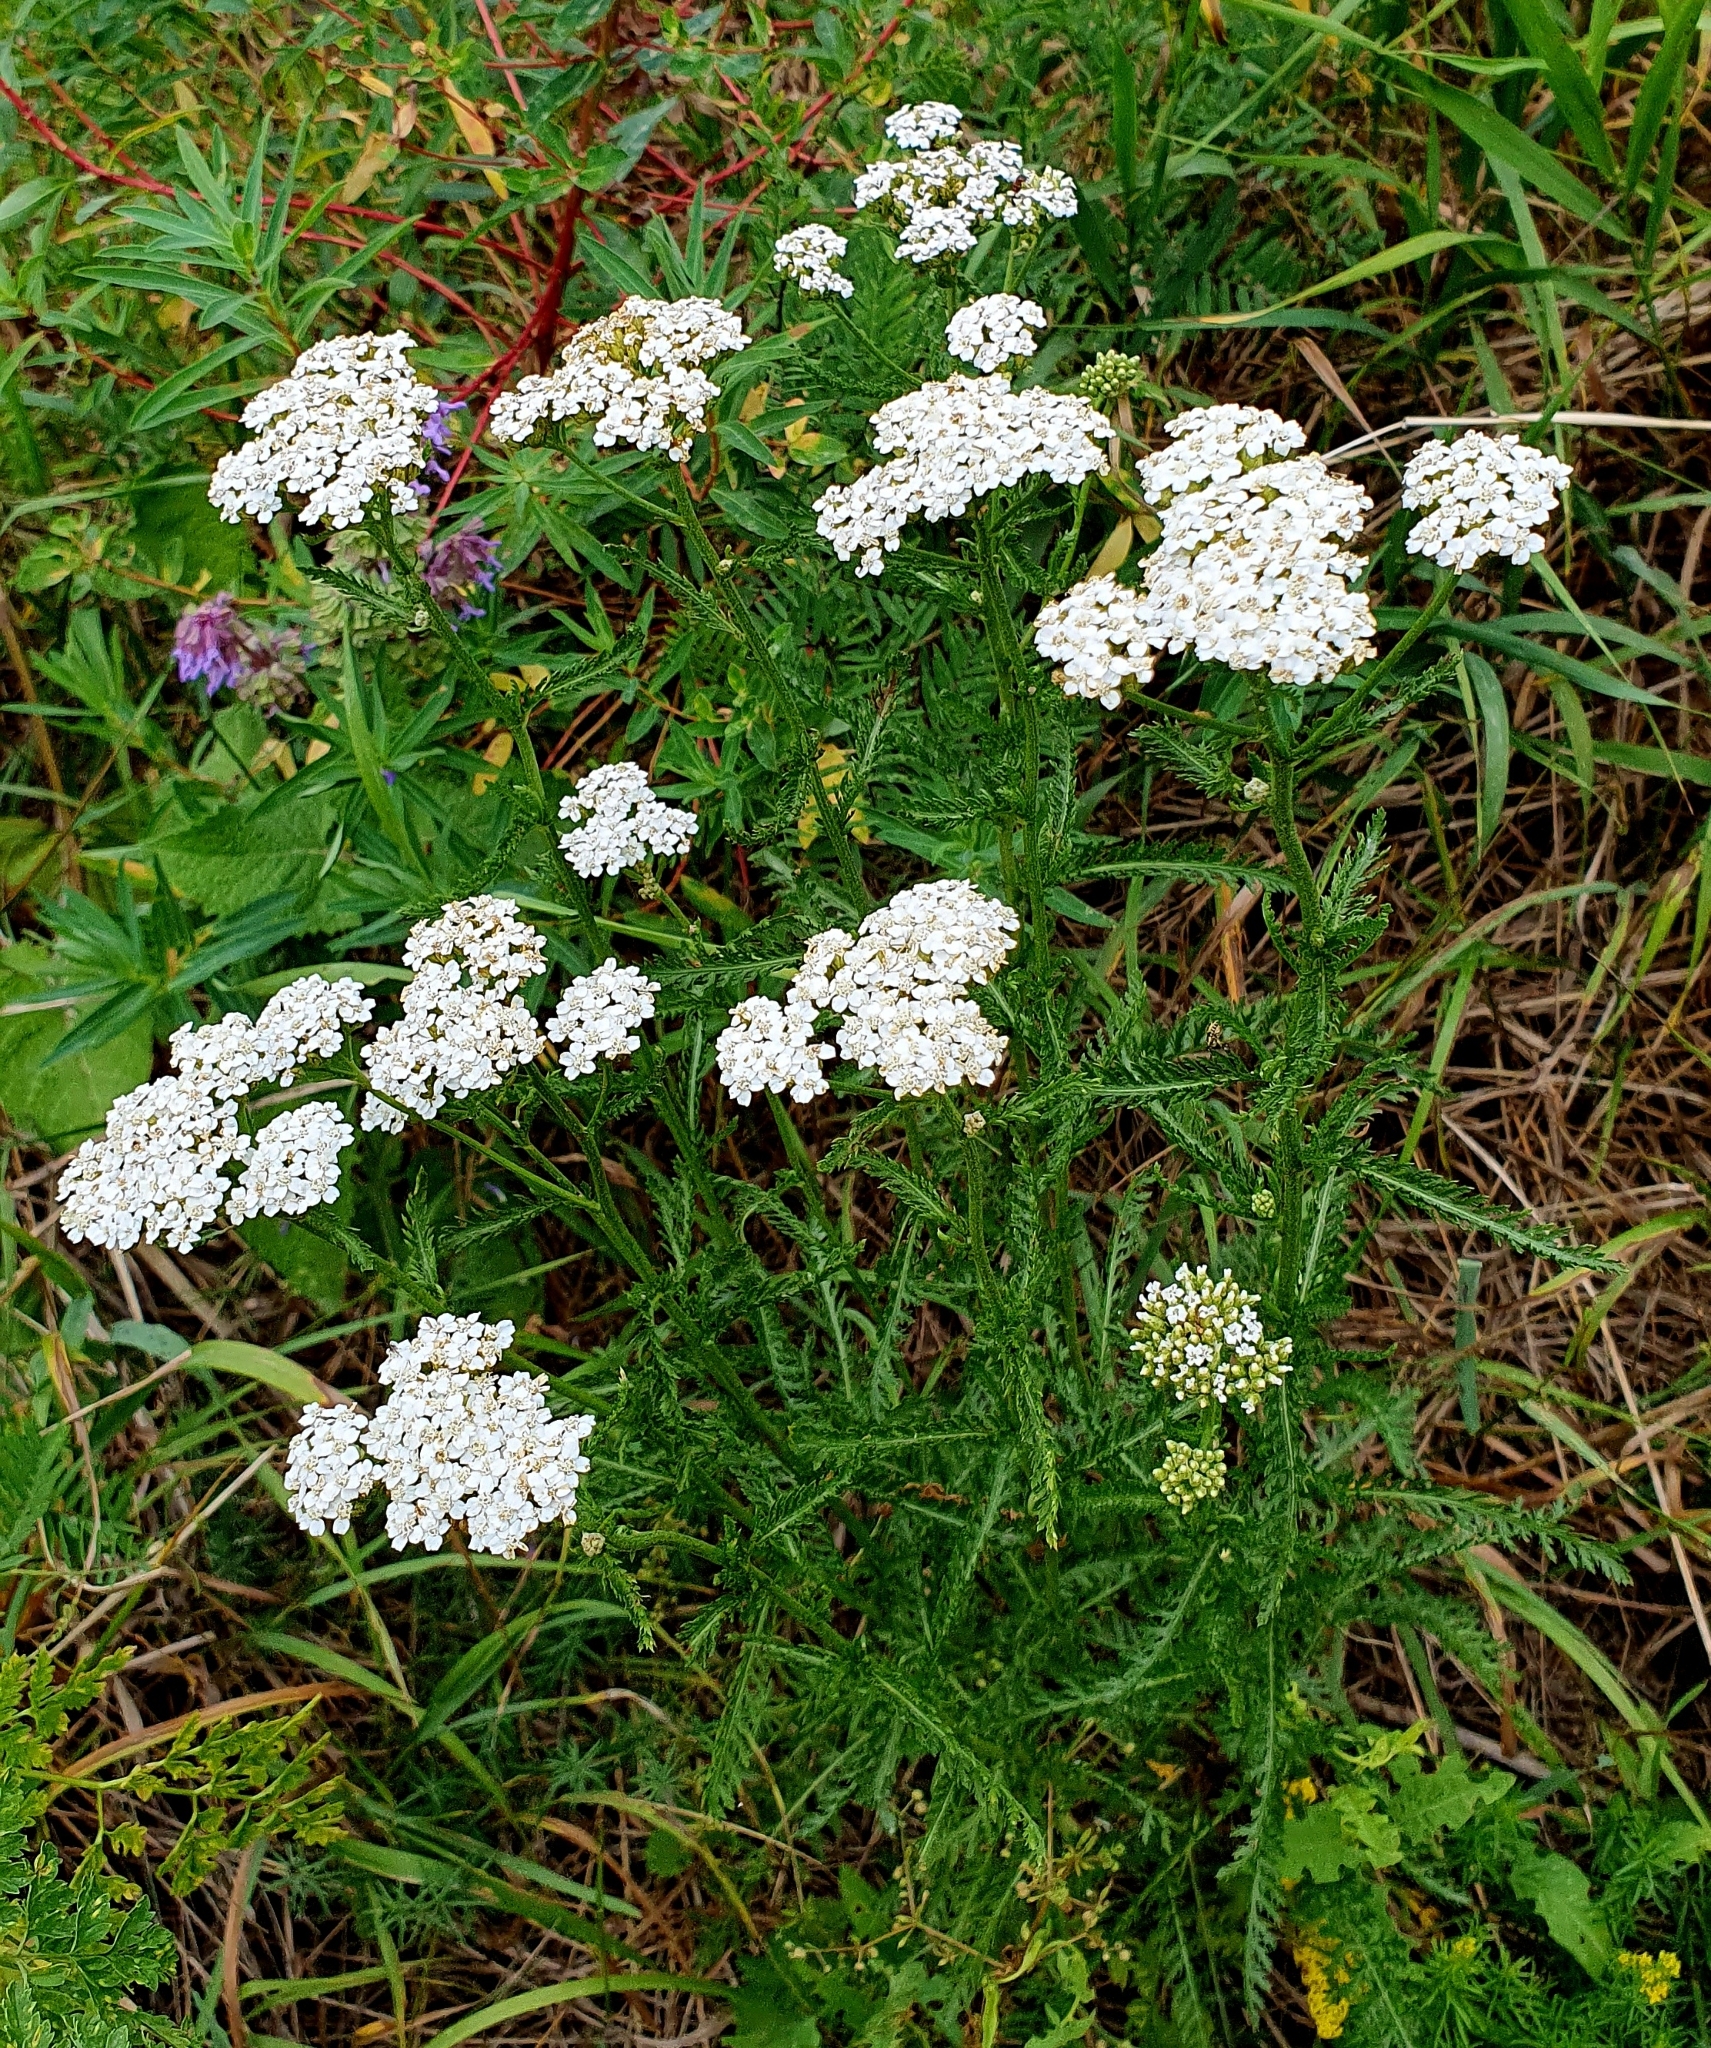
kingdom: Plantae
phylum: Tracheophyta
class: Magnoliopsida
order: Asterales
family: Asteraceae
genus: Achillea
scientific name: Achillea millefolium
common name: Yarrow
